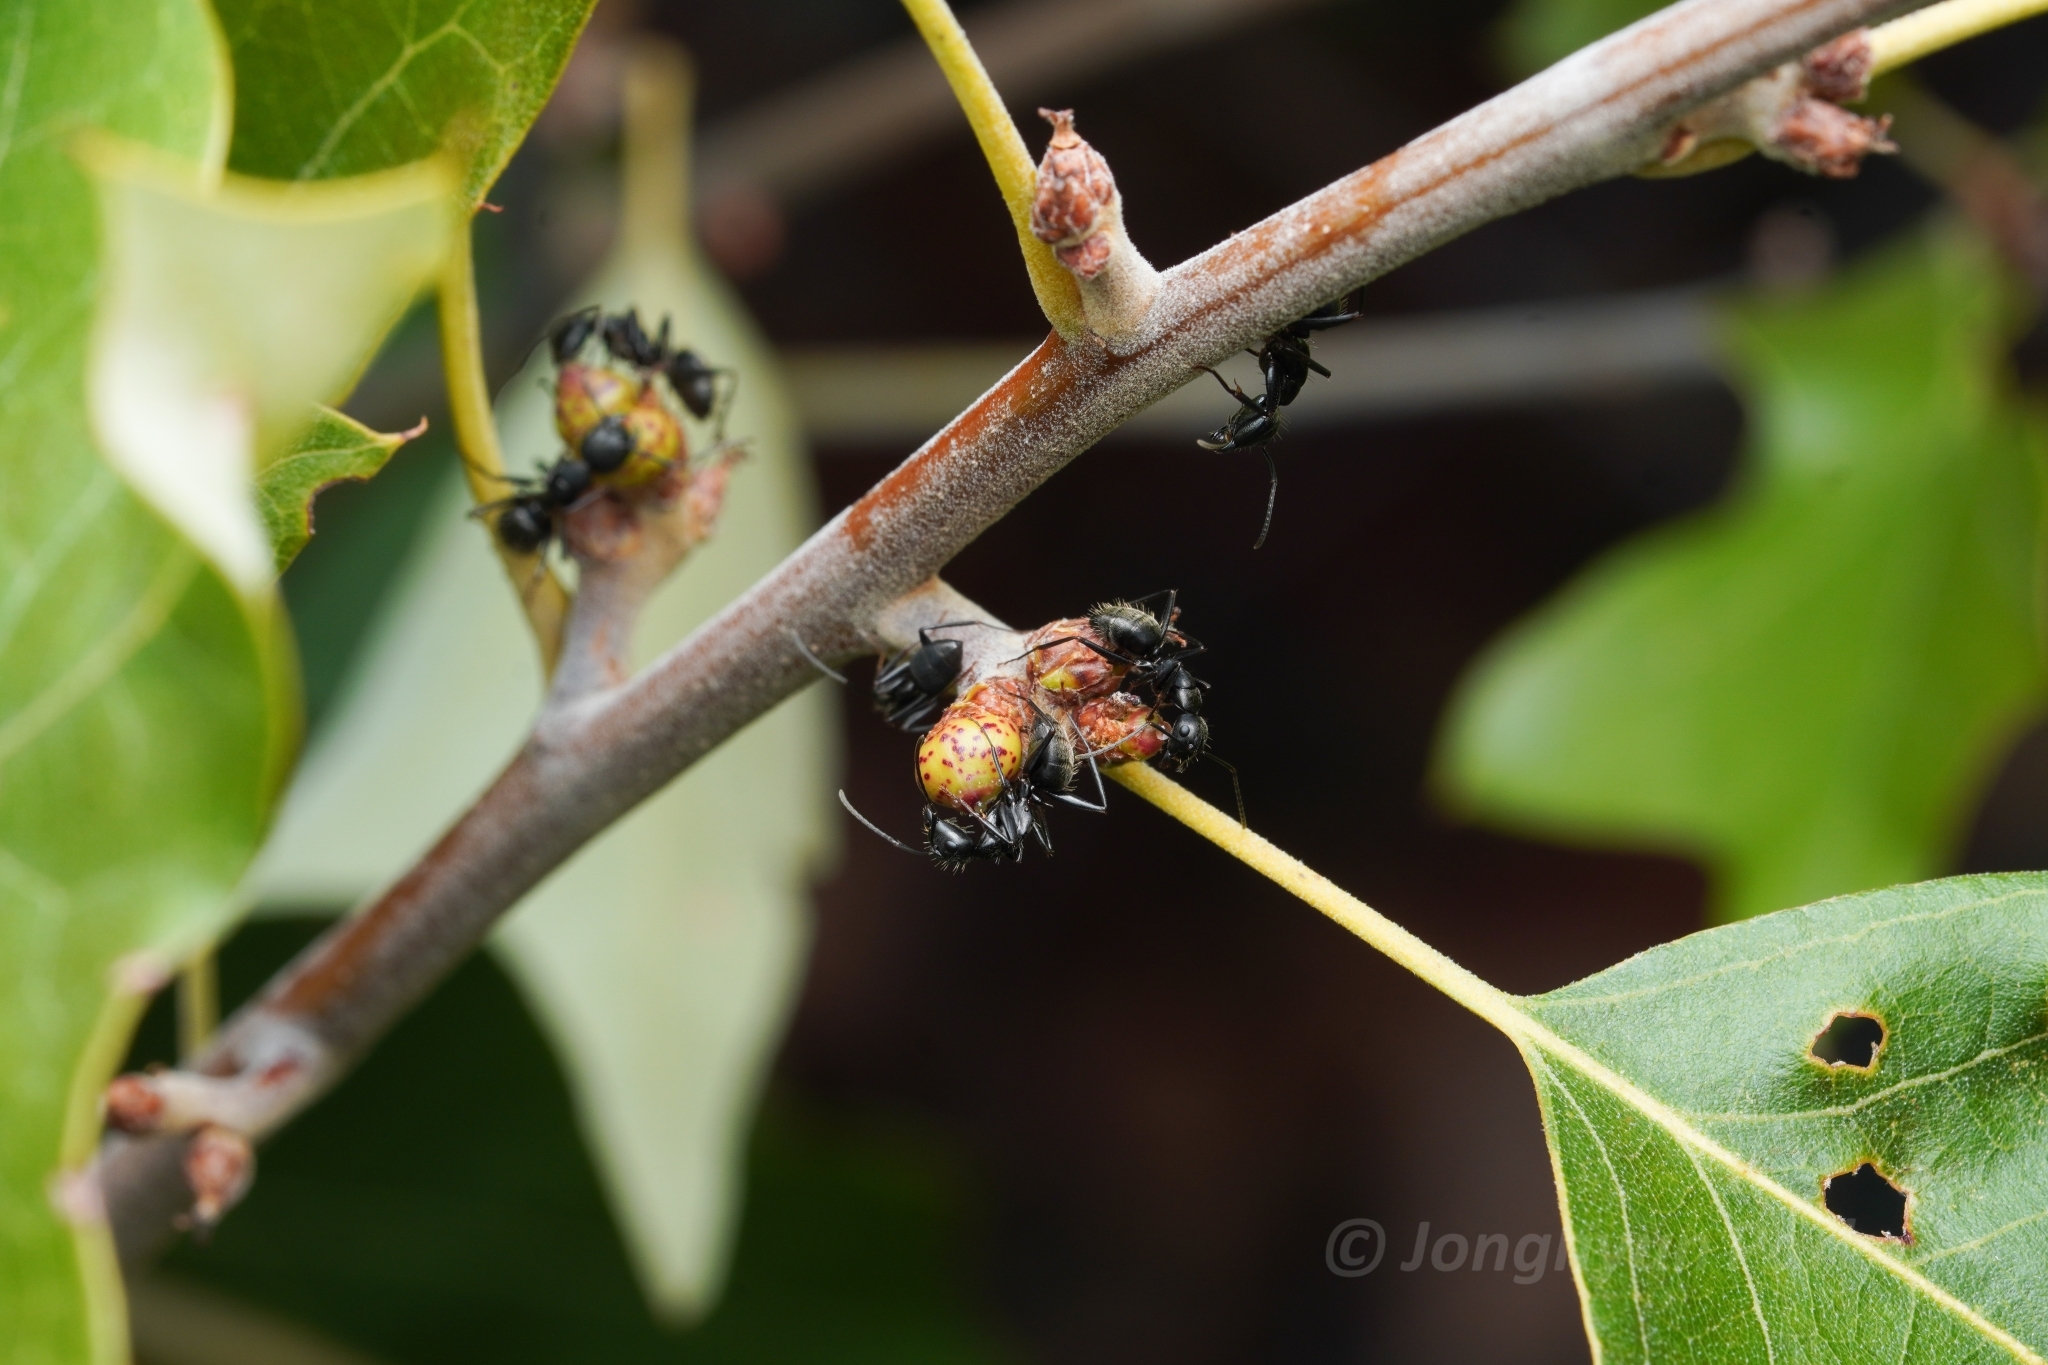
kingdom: Animalia
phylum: Arthropoda
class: Insecta
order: Hymenoptera
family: Formicidae
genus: Camponotus
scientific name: Camponotus pennsylvanicus
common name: Black carpenter ant
